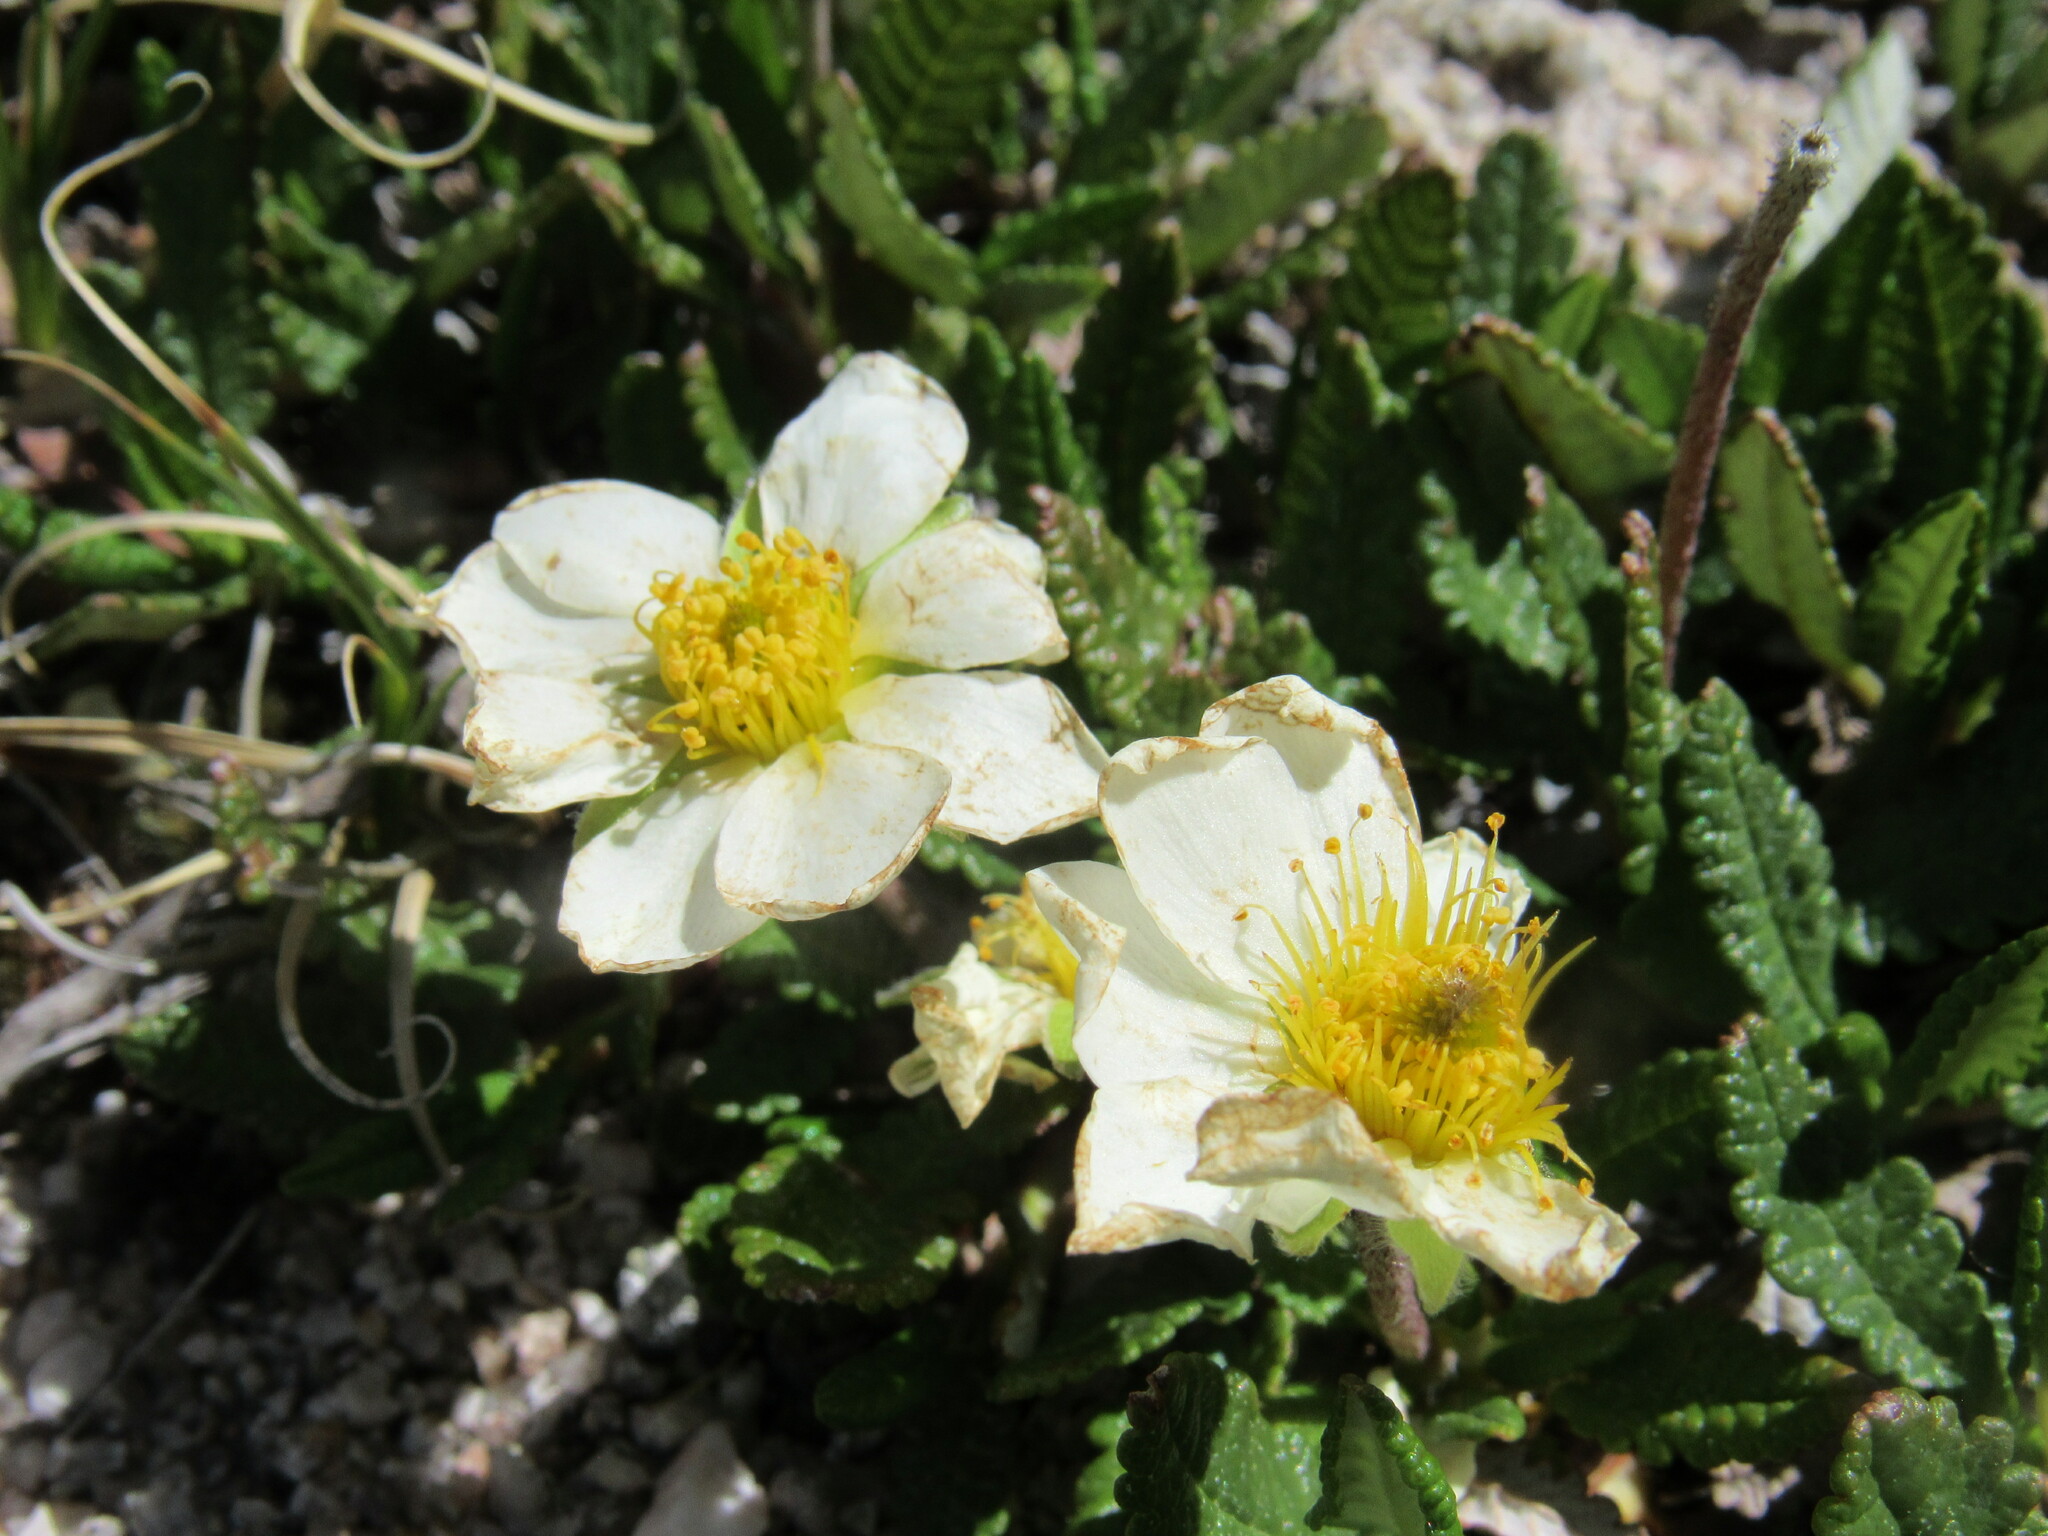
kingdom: Plantae
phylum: Tracheophyta
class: Magnoliopsida
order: Rosales
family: Rosaceae
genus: Dryas
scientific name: Dryas octopetala
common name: Eight-petal mountain-avens
